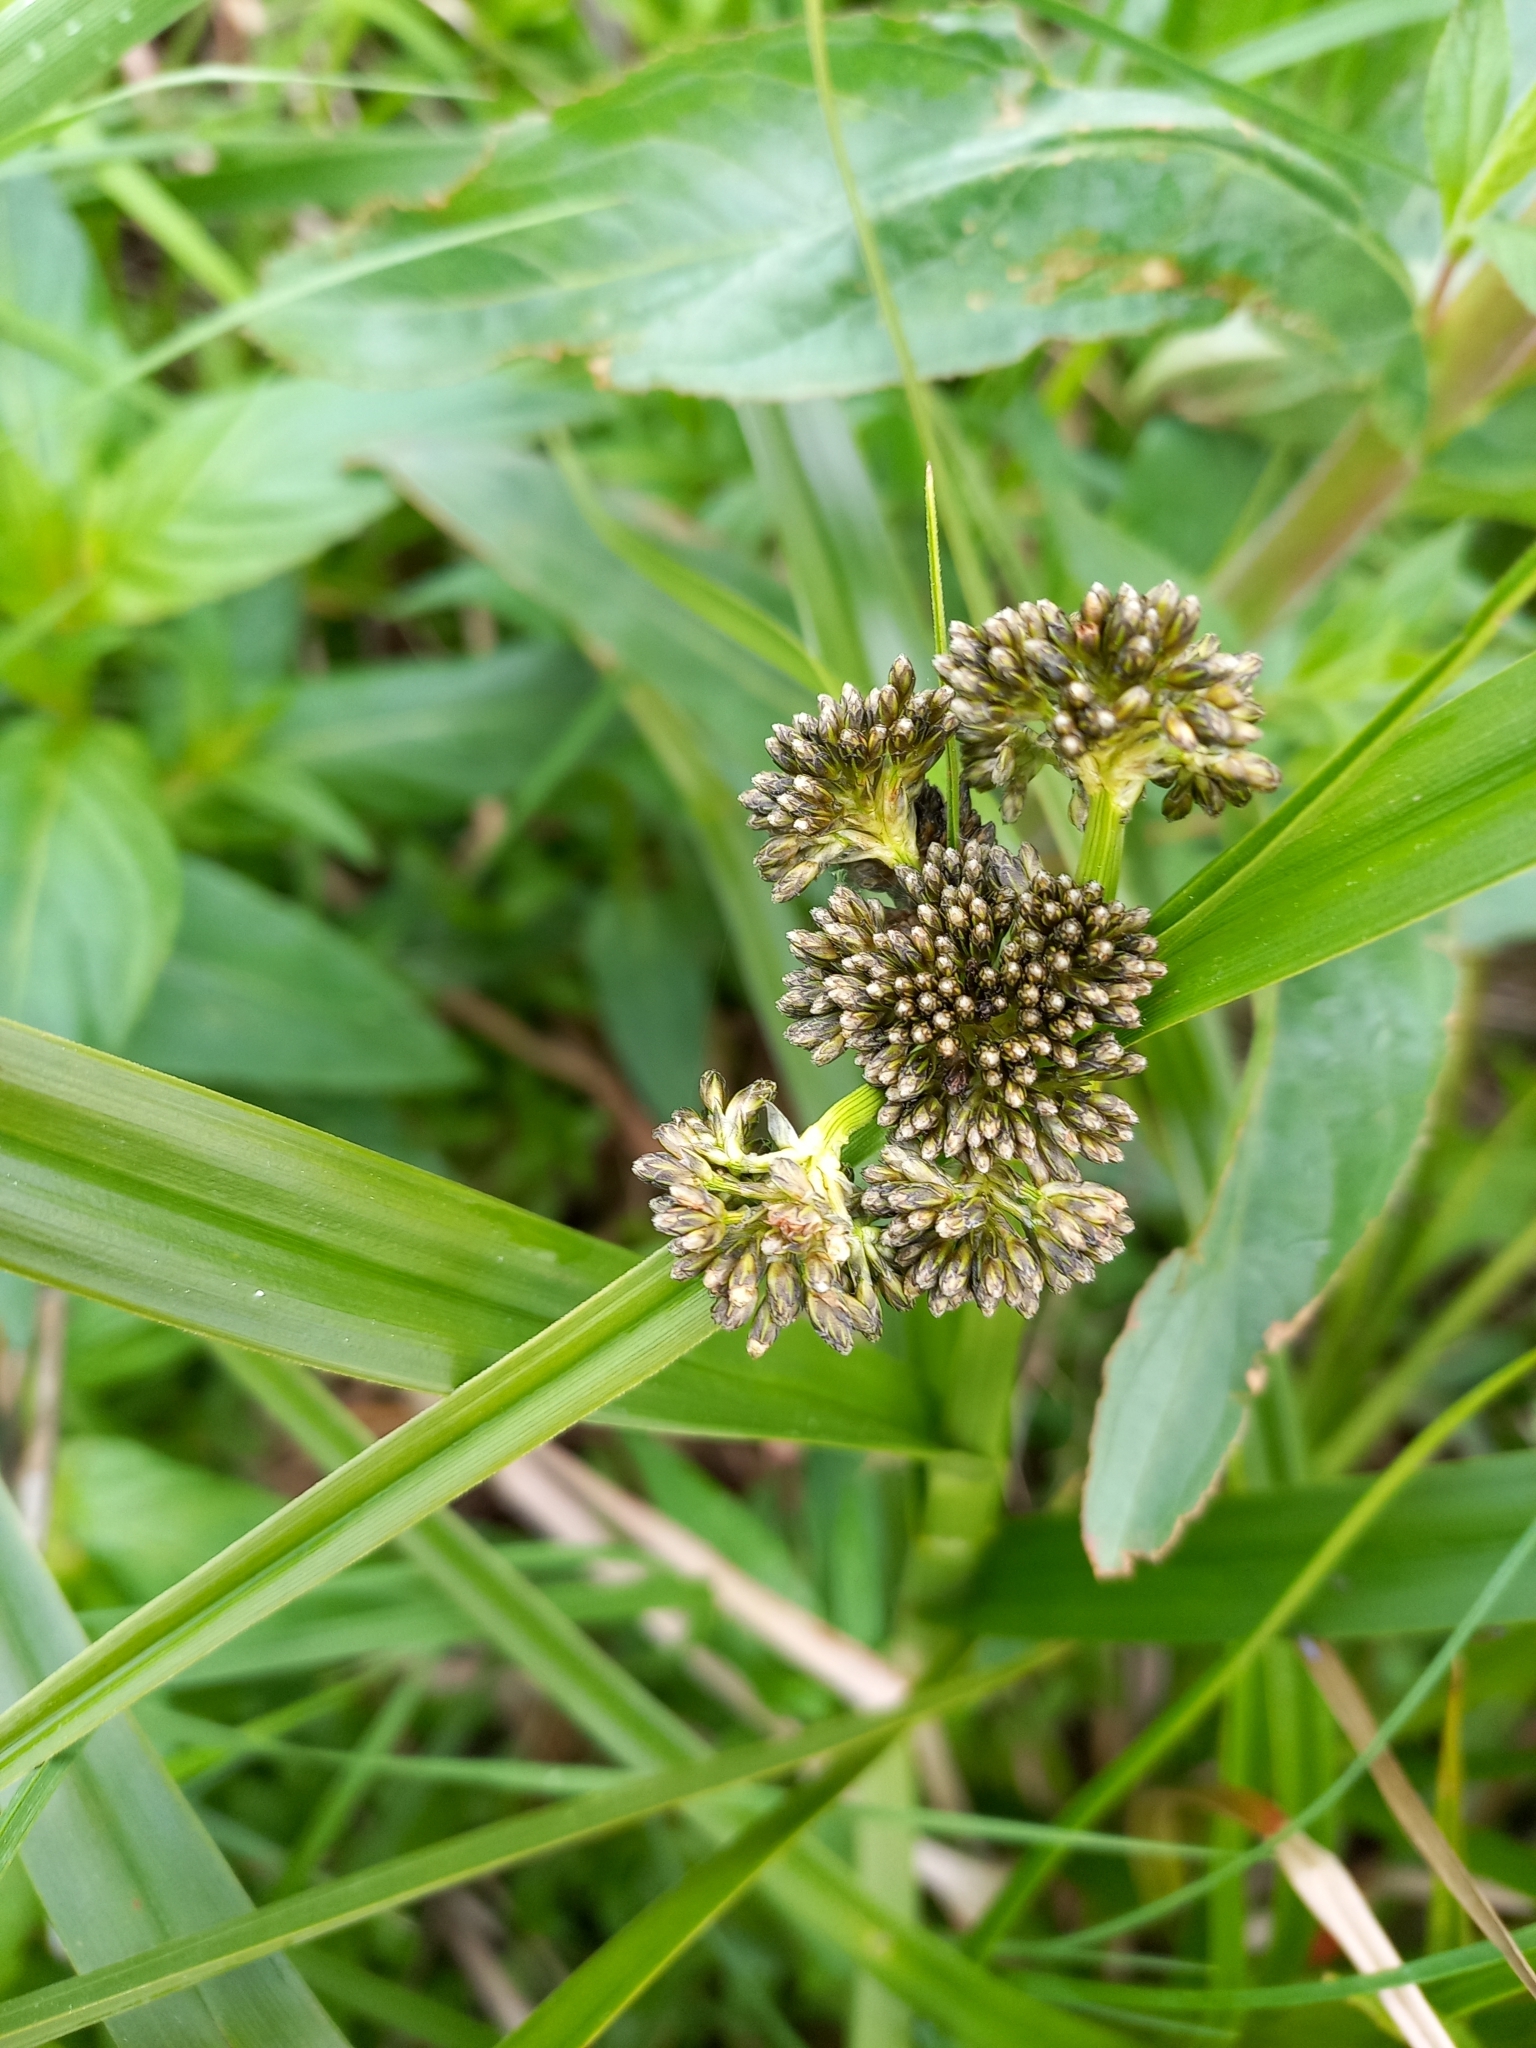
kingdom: Plantae
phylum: Tracheophyta
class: Liliopsida
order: Poales
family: Cyperaceae
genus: Scirpus
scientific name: Scirpus sylvaticus
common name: Wood club-rush
